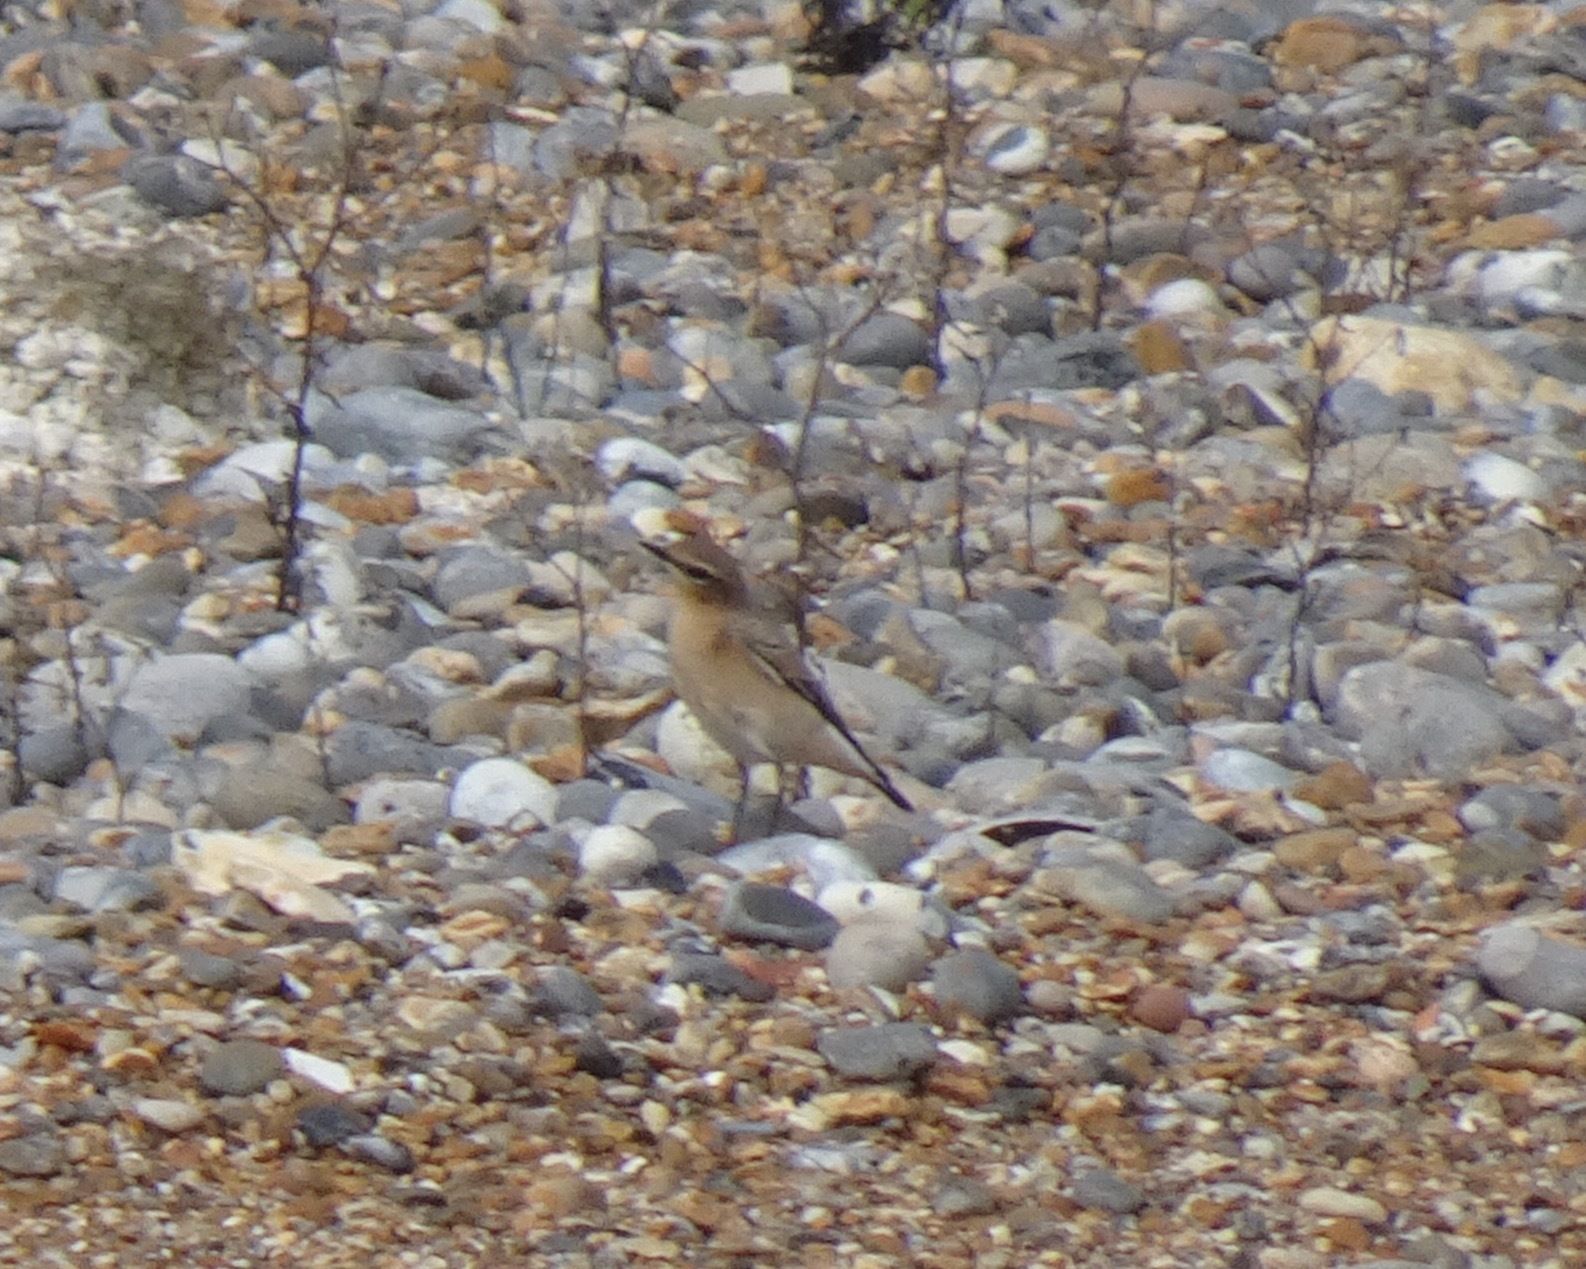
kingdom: Animalia
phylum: Chordata
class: Aves
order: Passeriformes
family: Muscicapidae
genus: Oenanthe
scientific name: Oenanthe oenanthe
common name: Northern wheatear
